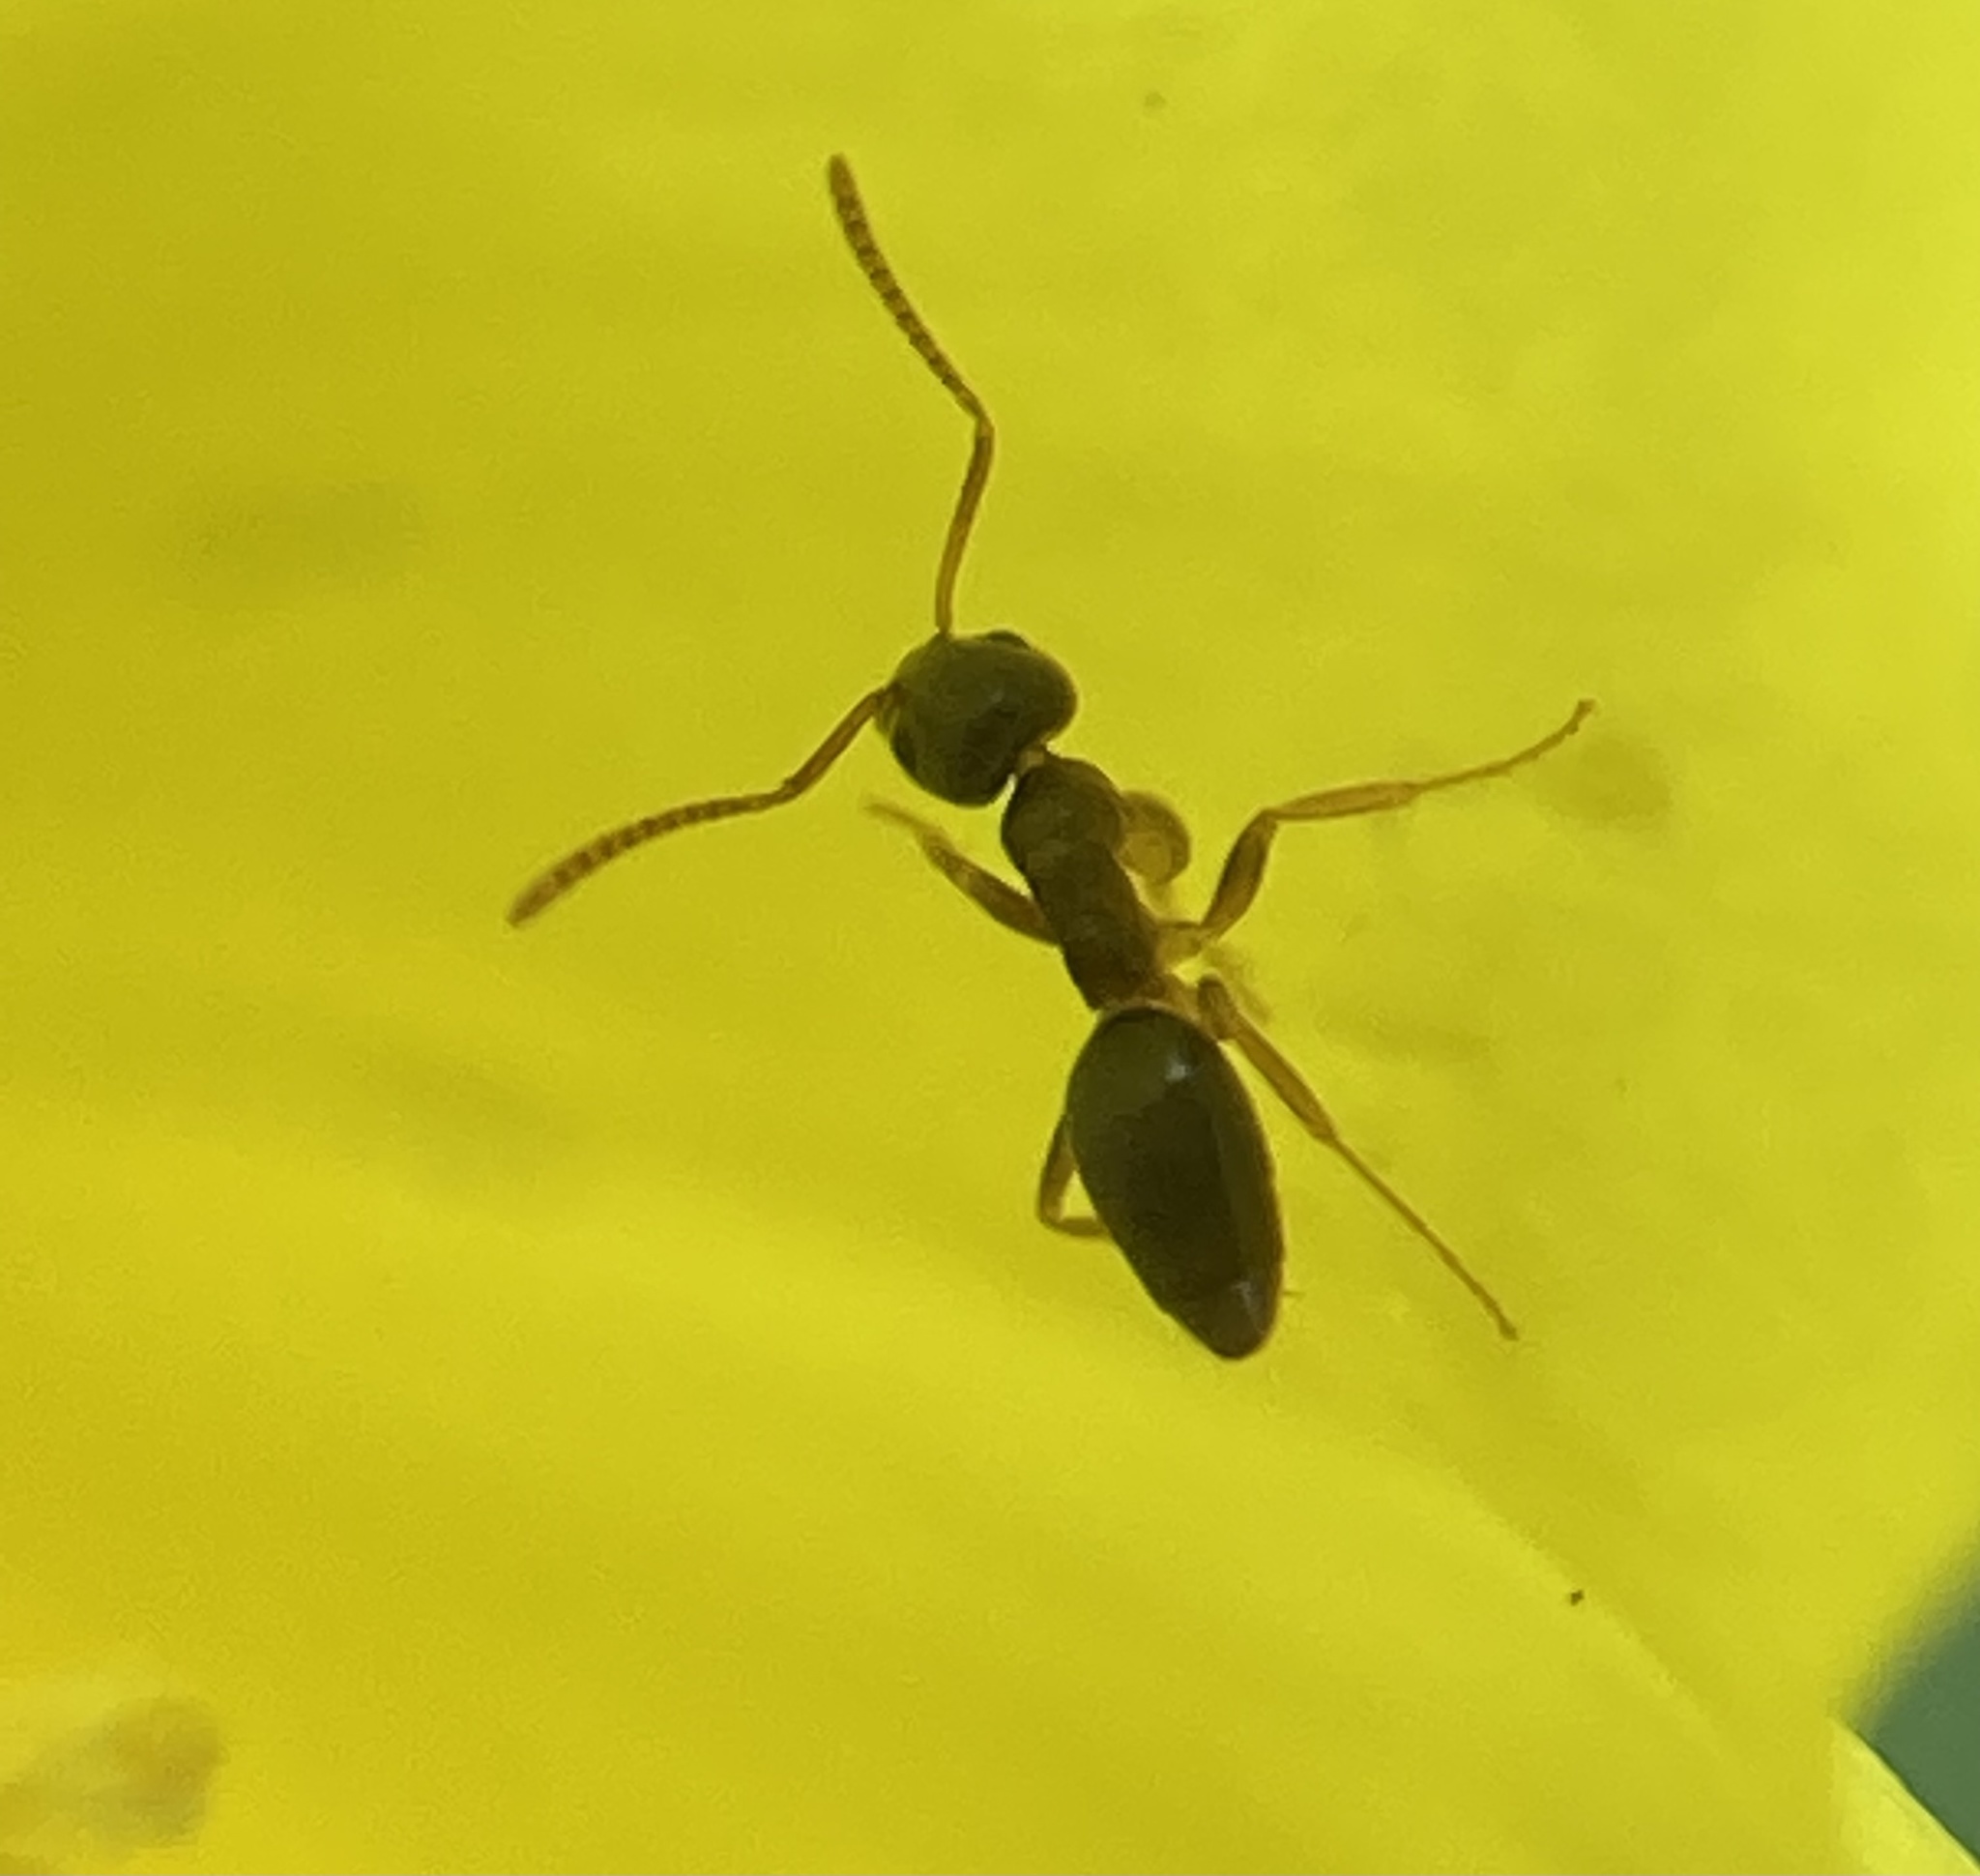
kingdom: Animalia
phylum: Arthropoda
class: Insecta
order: Hymenoptera
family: Formicidae
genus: Tapinoma
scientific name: Tapinoma sessile
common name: Odorous house ant
